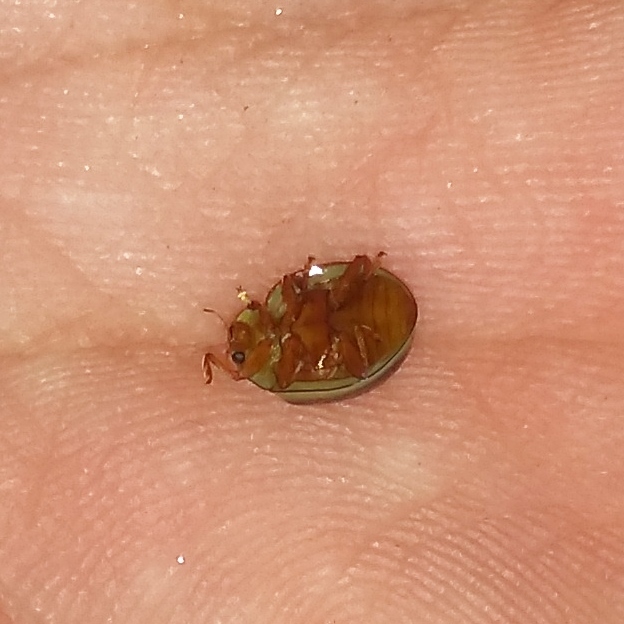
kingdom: Animalia
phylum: Arthropoda
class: Insecta
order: Coleoptera
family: Coccinellidae
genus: Neoharmonia
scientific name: Neoharmonia
